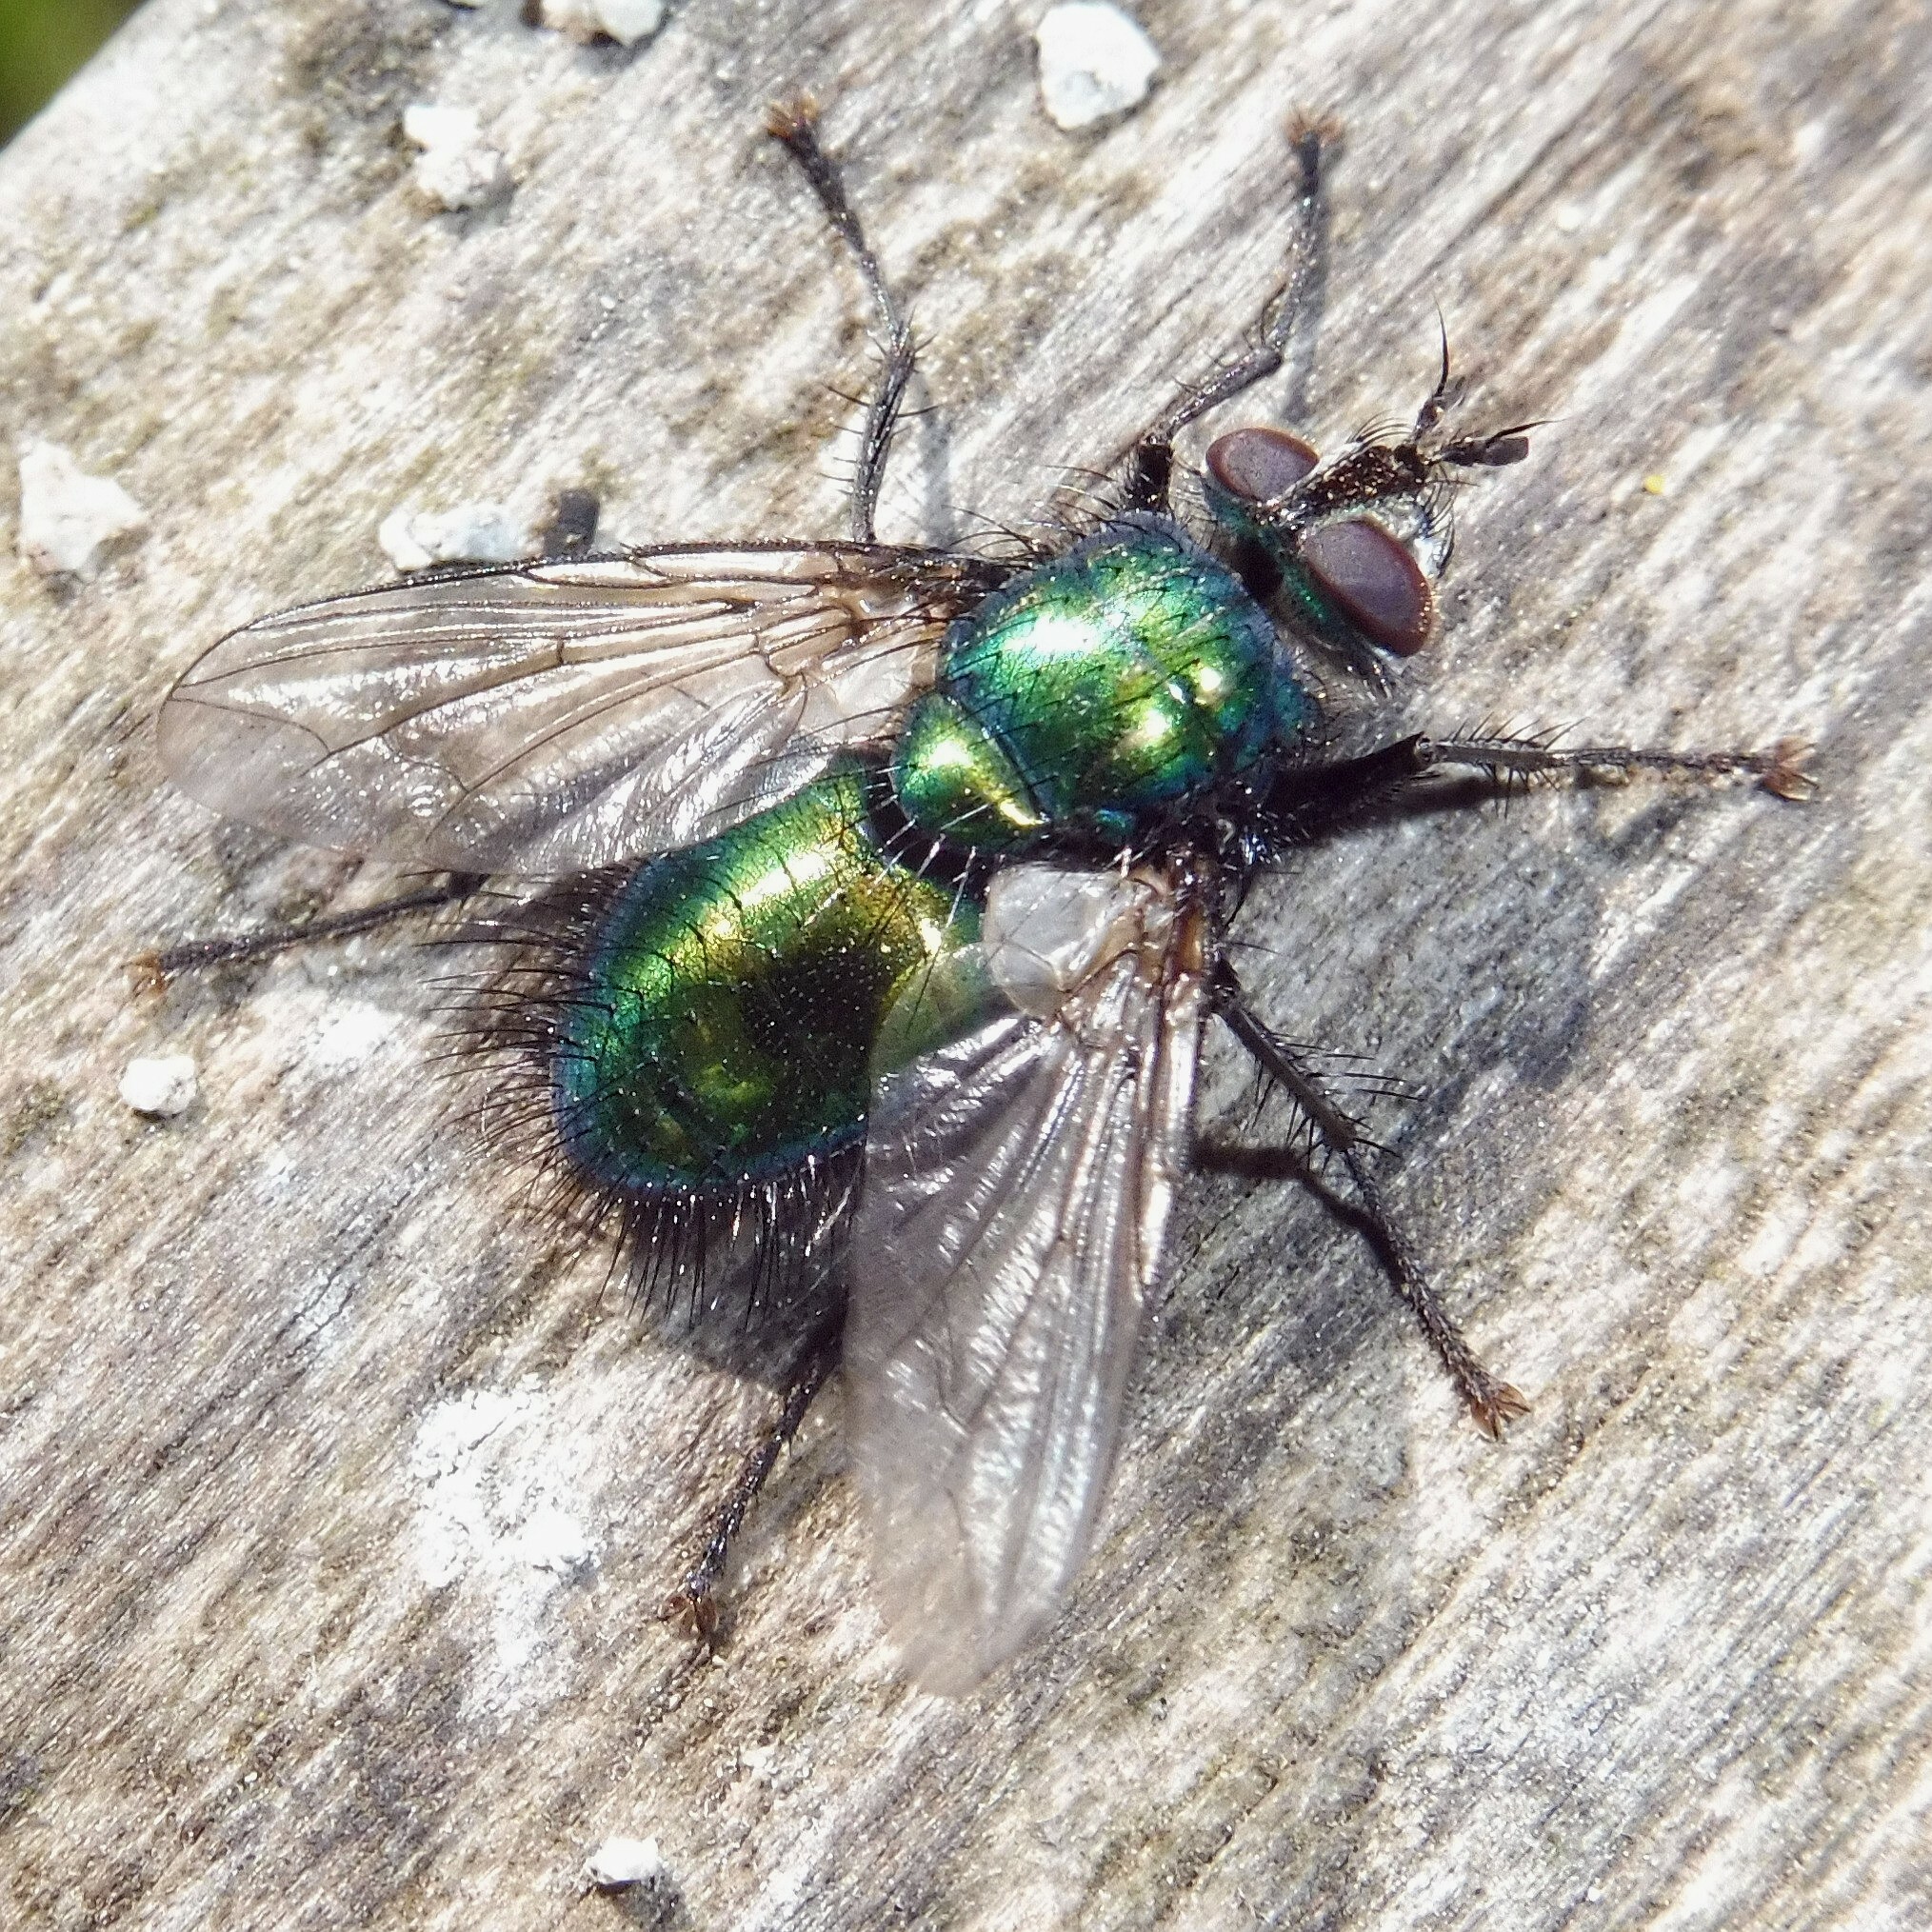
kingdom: Animalia
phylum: Arthropoda
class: Insecta
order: Diptera
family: Tachinidae
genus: Gymnocheta
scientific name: Gymnocheta viridis
